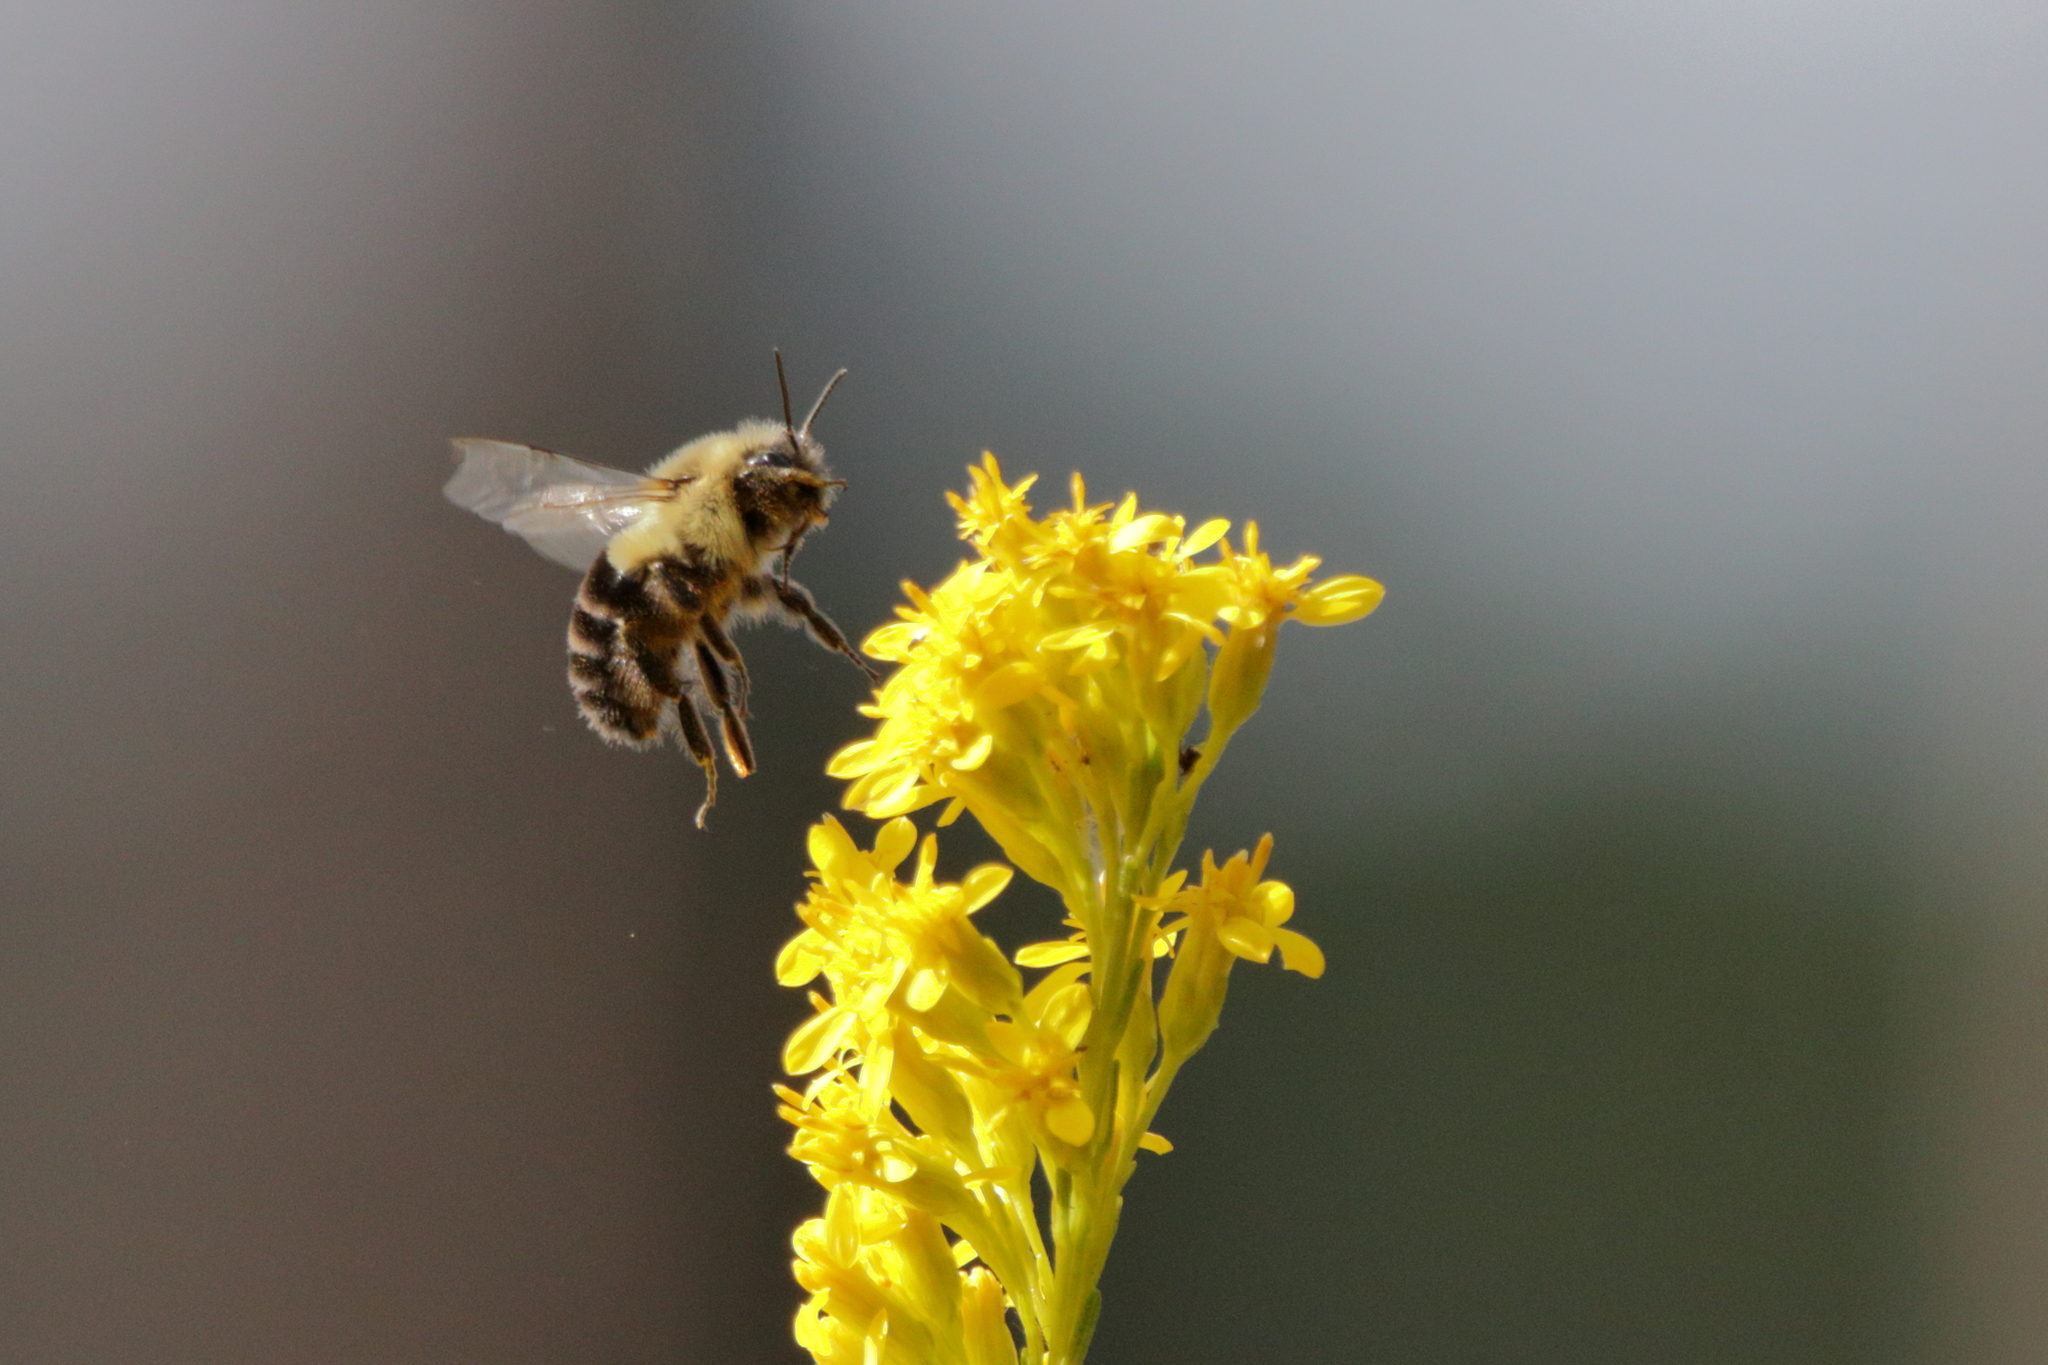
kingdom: Animalia
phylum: Arthropoda
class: Insecta
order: Hymenoptera
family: Apidae
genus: Bombus
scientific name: Bombus impatiens
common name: Common eastern bumble bee
